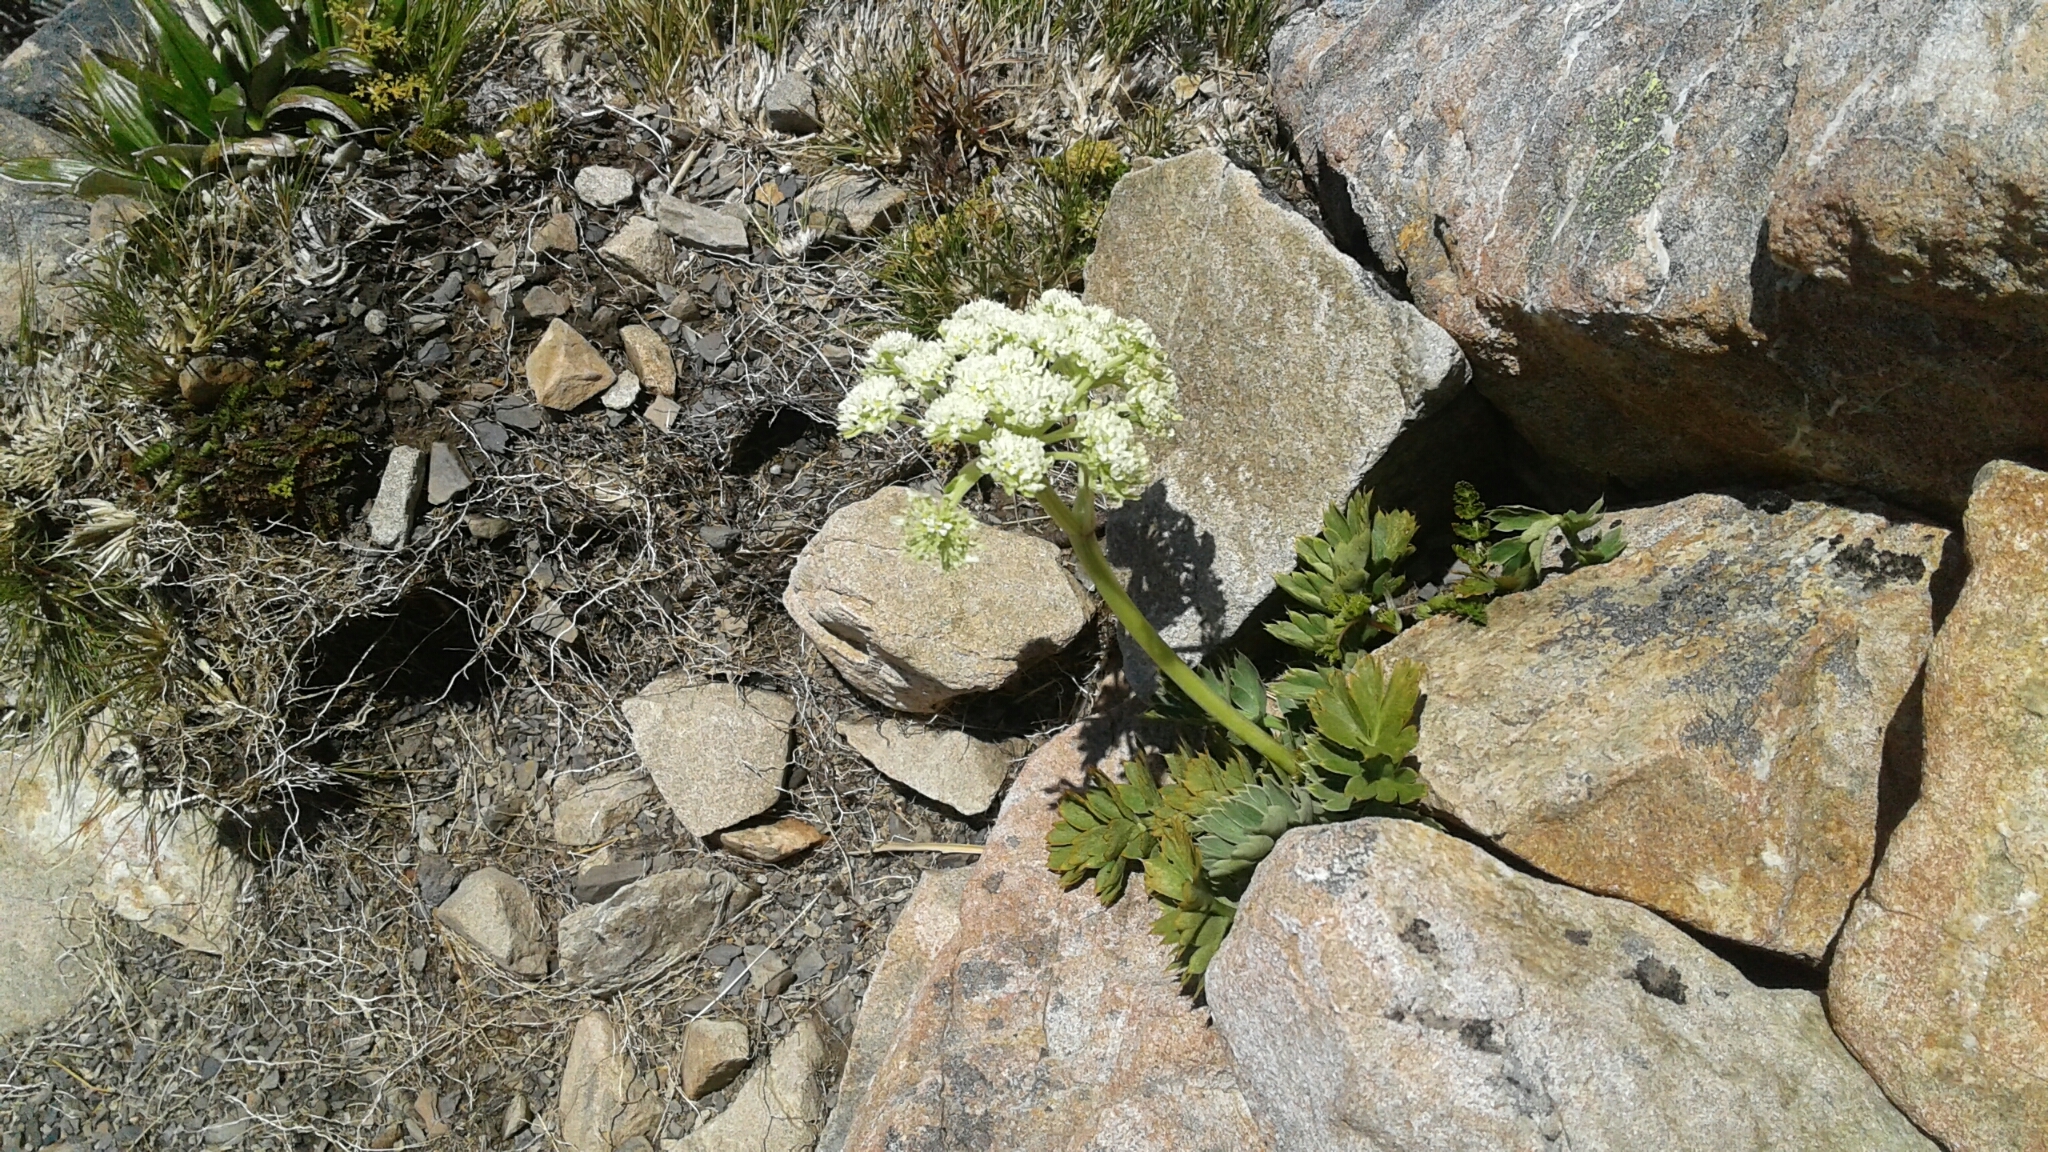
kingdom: Plantae
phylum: Tracheophyta
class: Magnoliopsida
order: Apiales
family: Apiaceae
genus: Anisotome
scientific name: Anisotome pilifera
